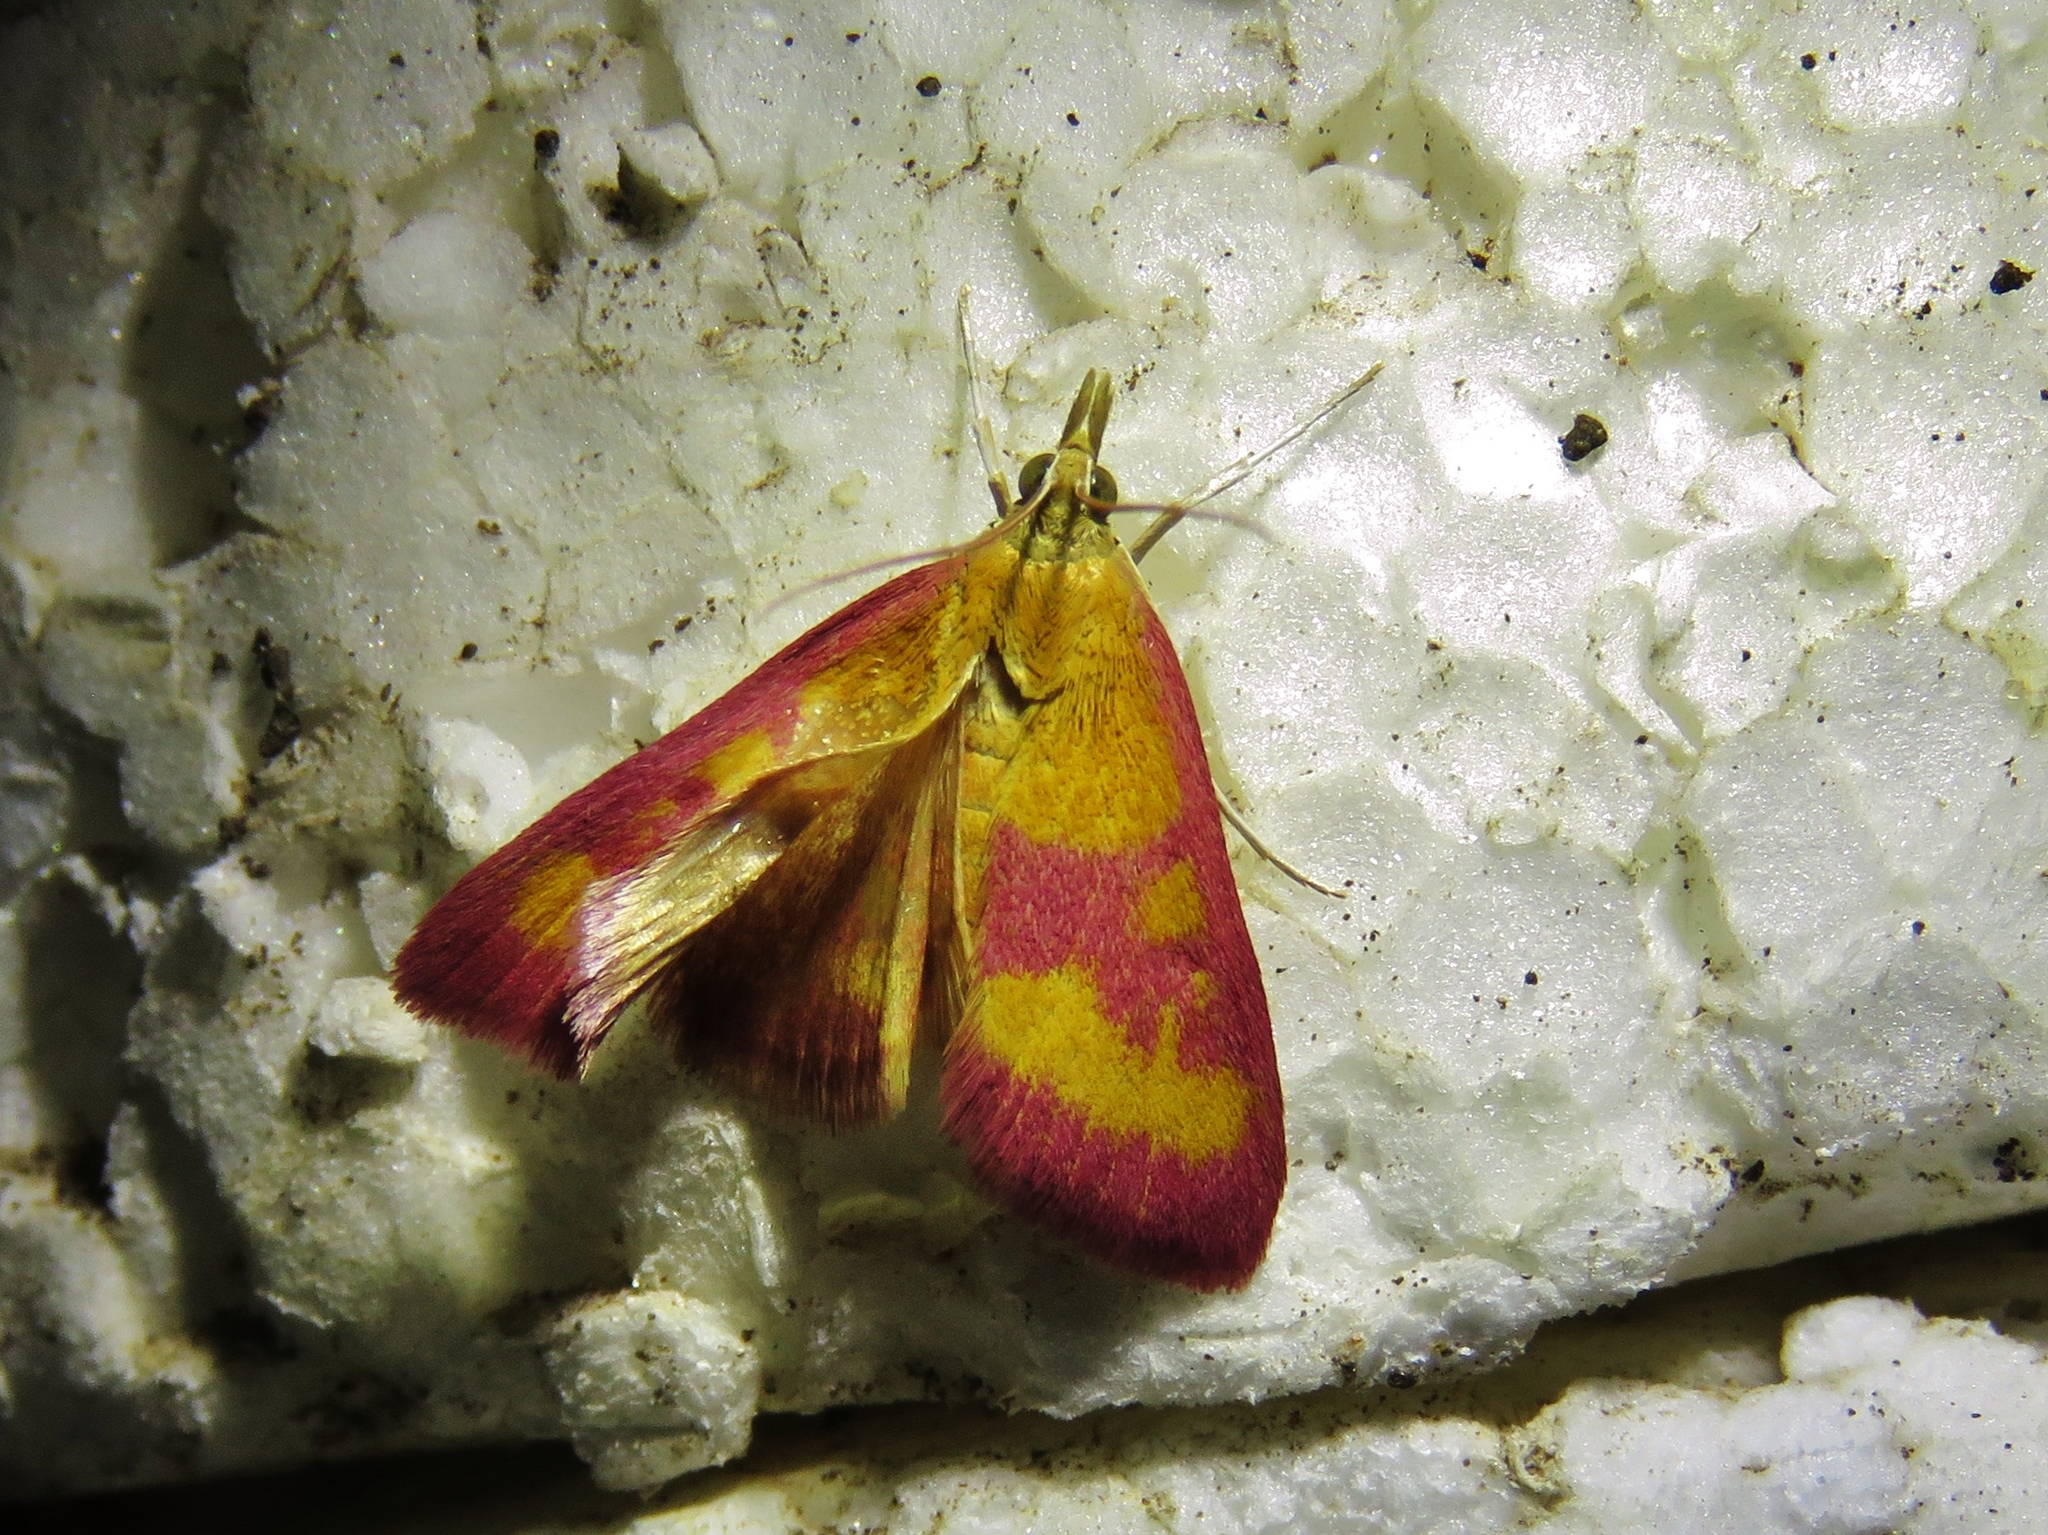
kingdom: Animalia
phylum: Arthropoda
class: Insecta
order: Lepidoptera
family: Crambidae
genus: Pyrausta
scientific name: Pyrausta laticlavia
